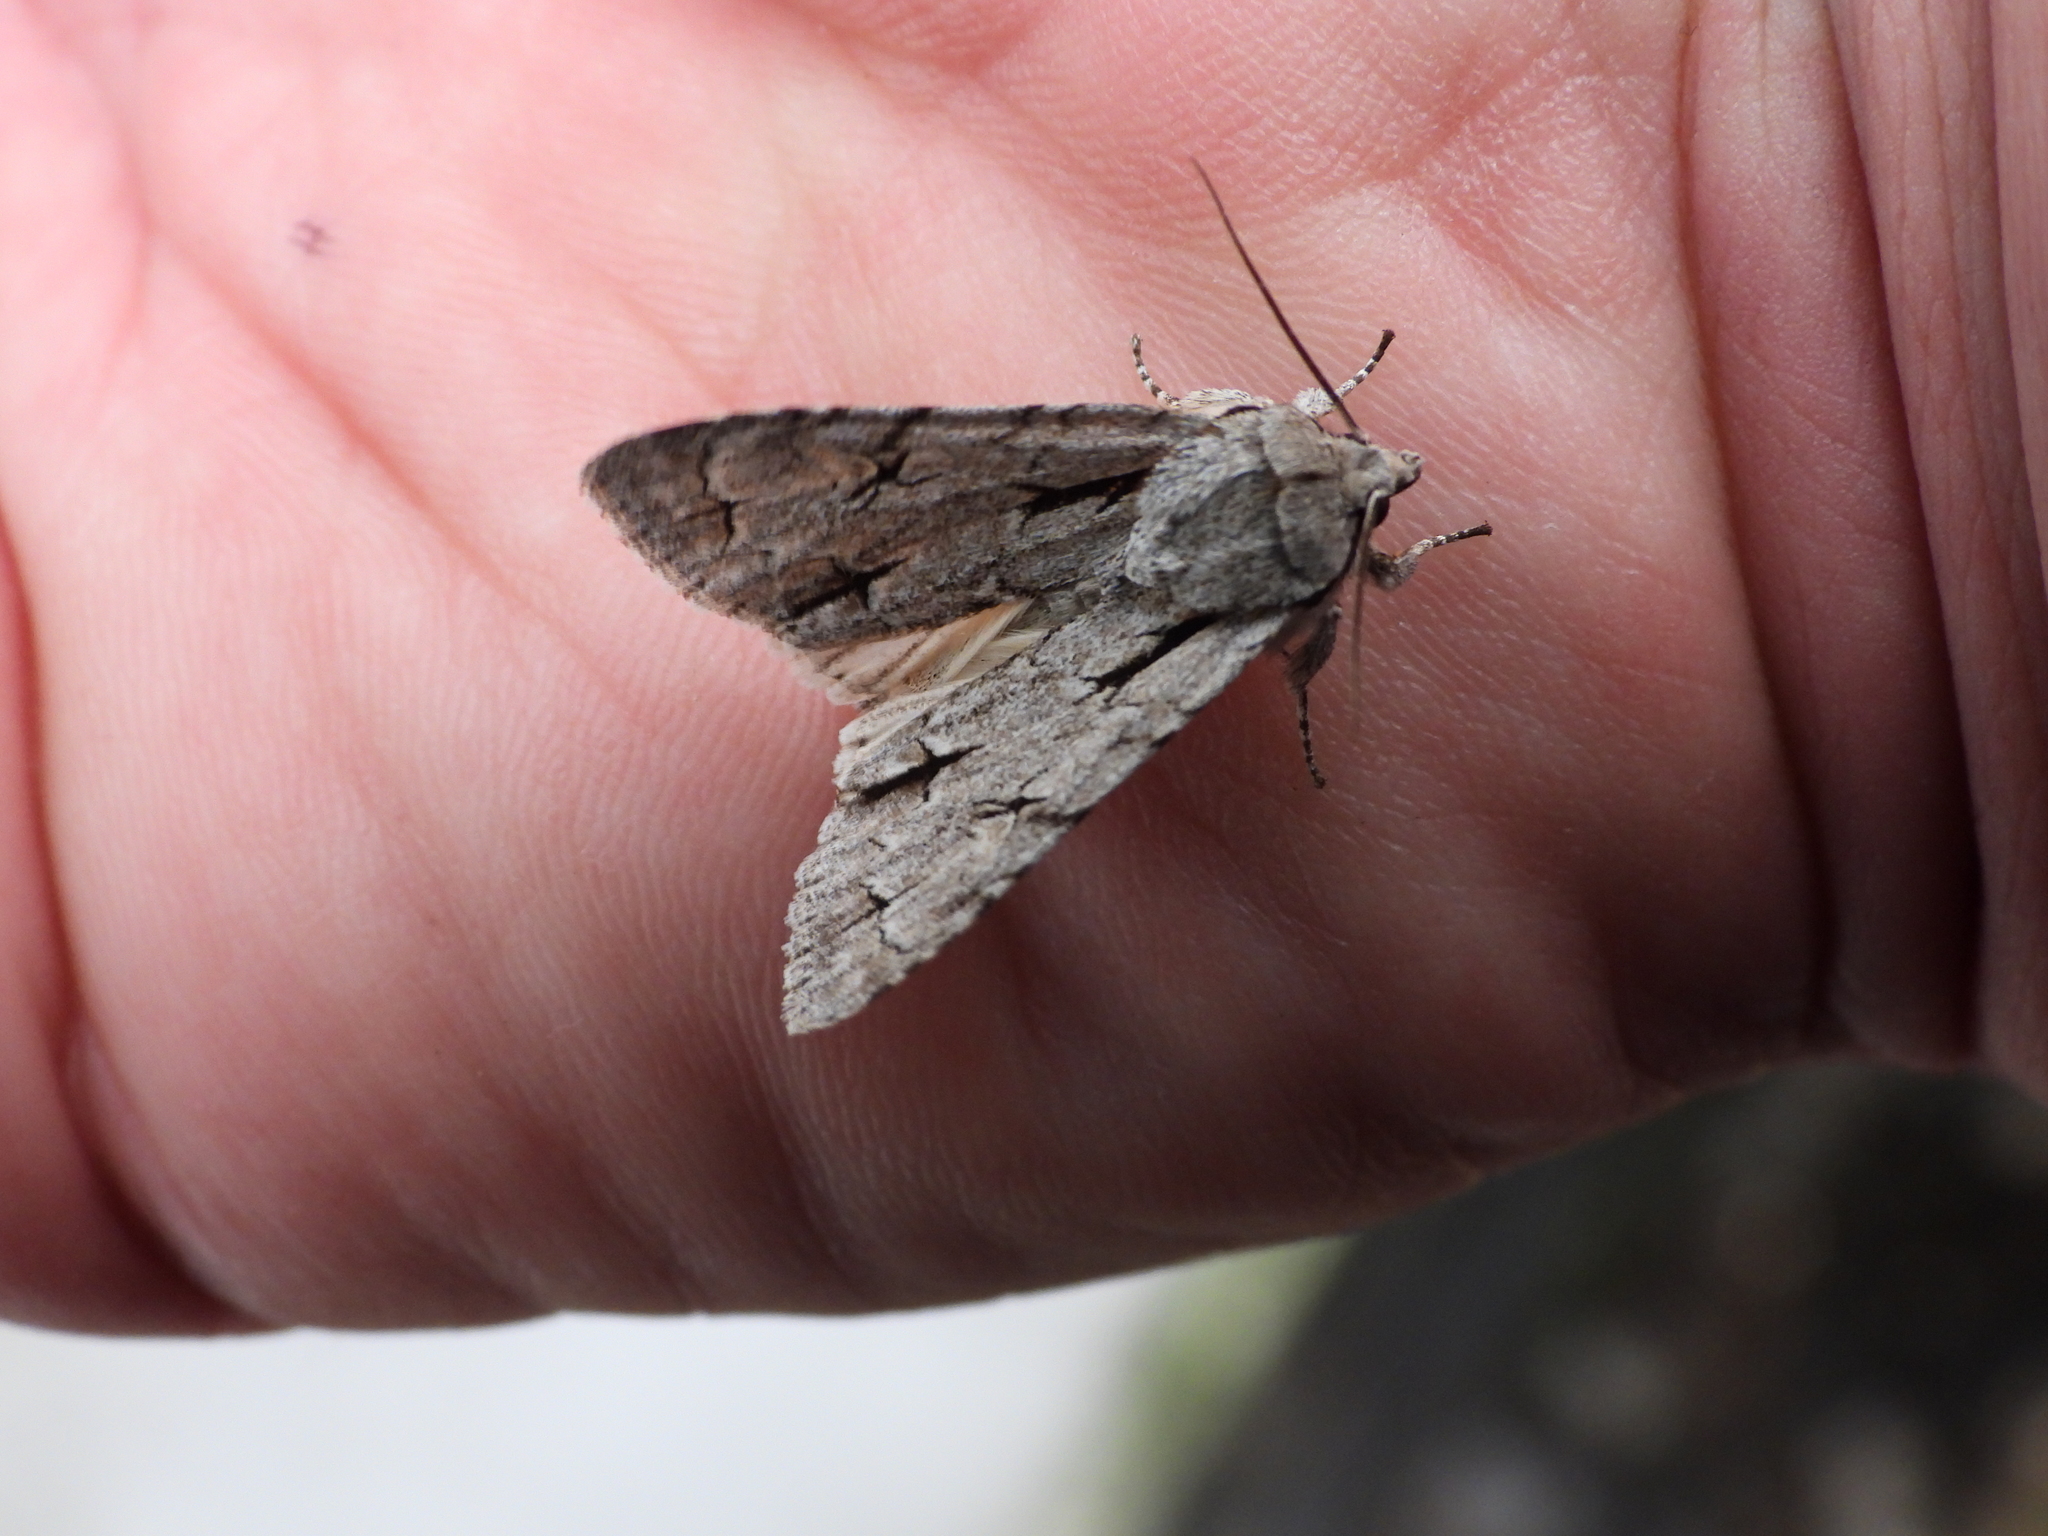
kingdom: Animalia
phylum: Arthropoda
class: Insecta
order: Lepidoptera
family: Noctuidae
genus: Acronicta
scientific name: Acronicta
